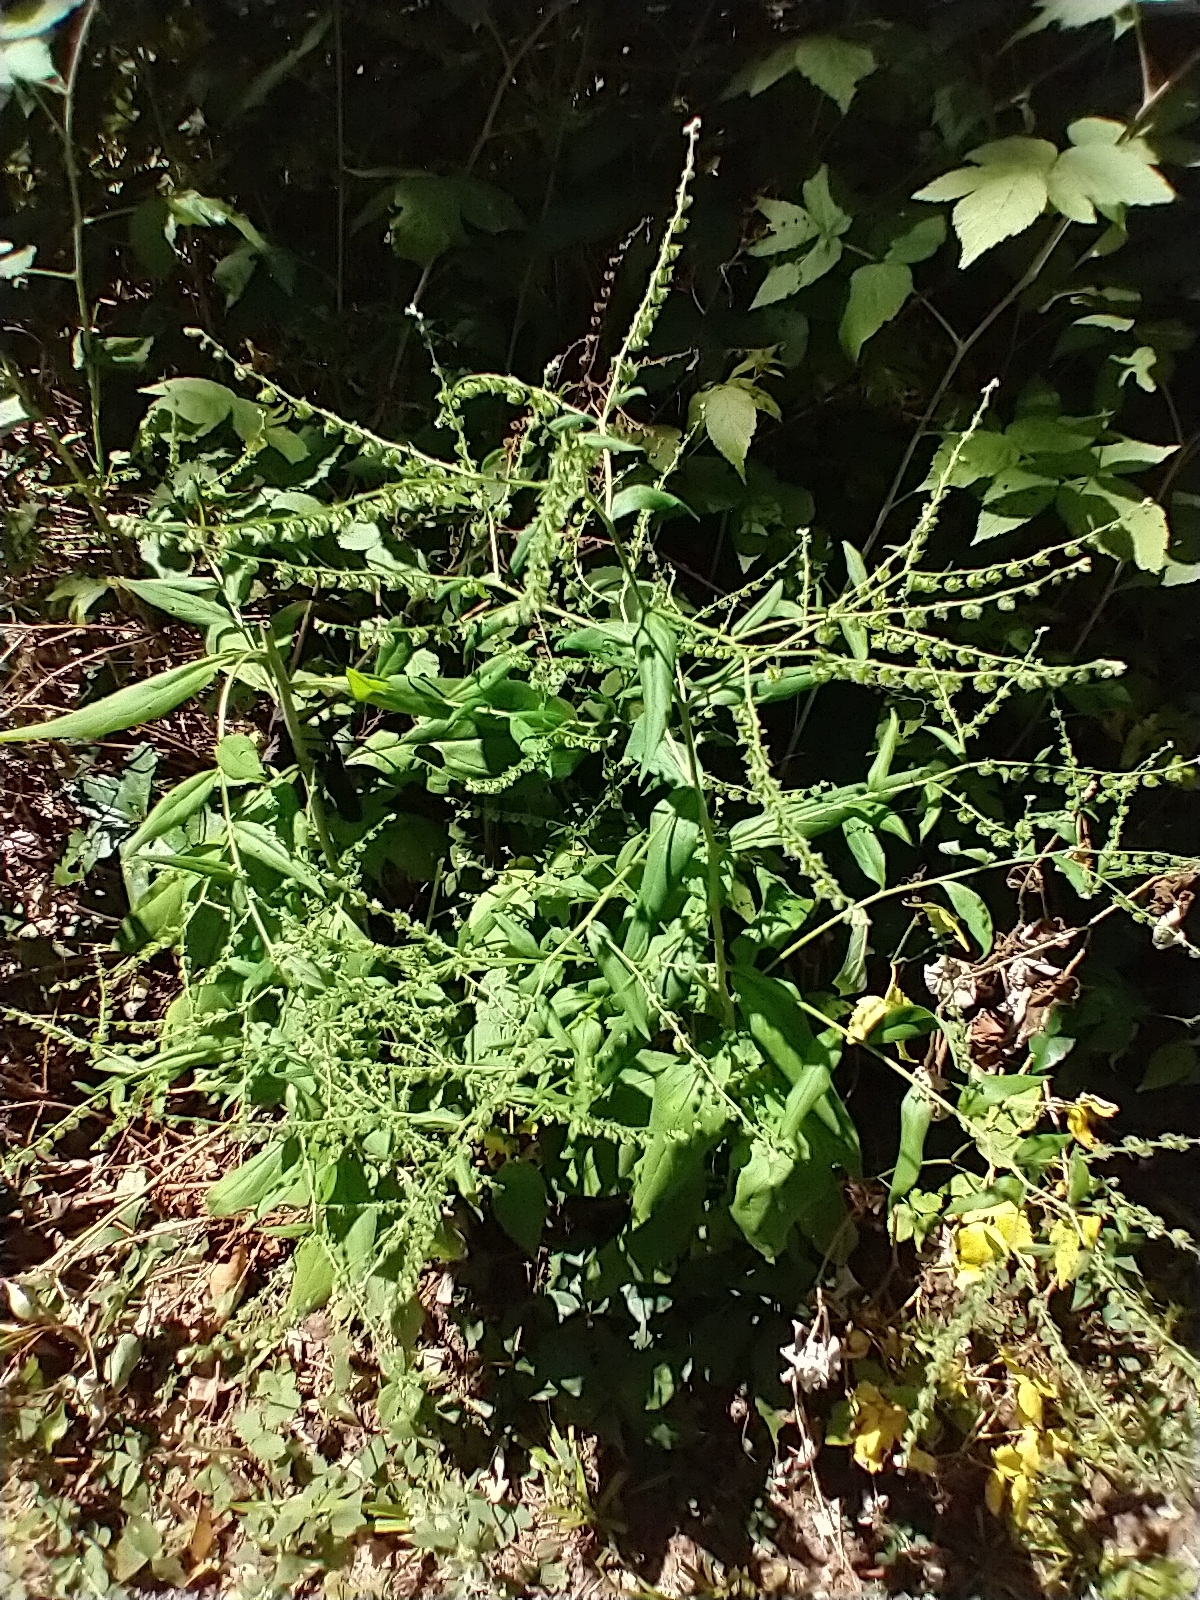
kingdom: Plantae
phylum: Tracheophyta
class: Magnoliopsida
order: Boraginales
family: Boraginaceae
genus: Hackelia
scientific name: Hackelia virginiana
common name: Beggar's-lice
